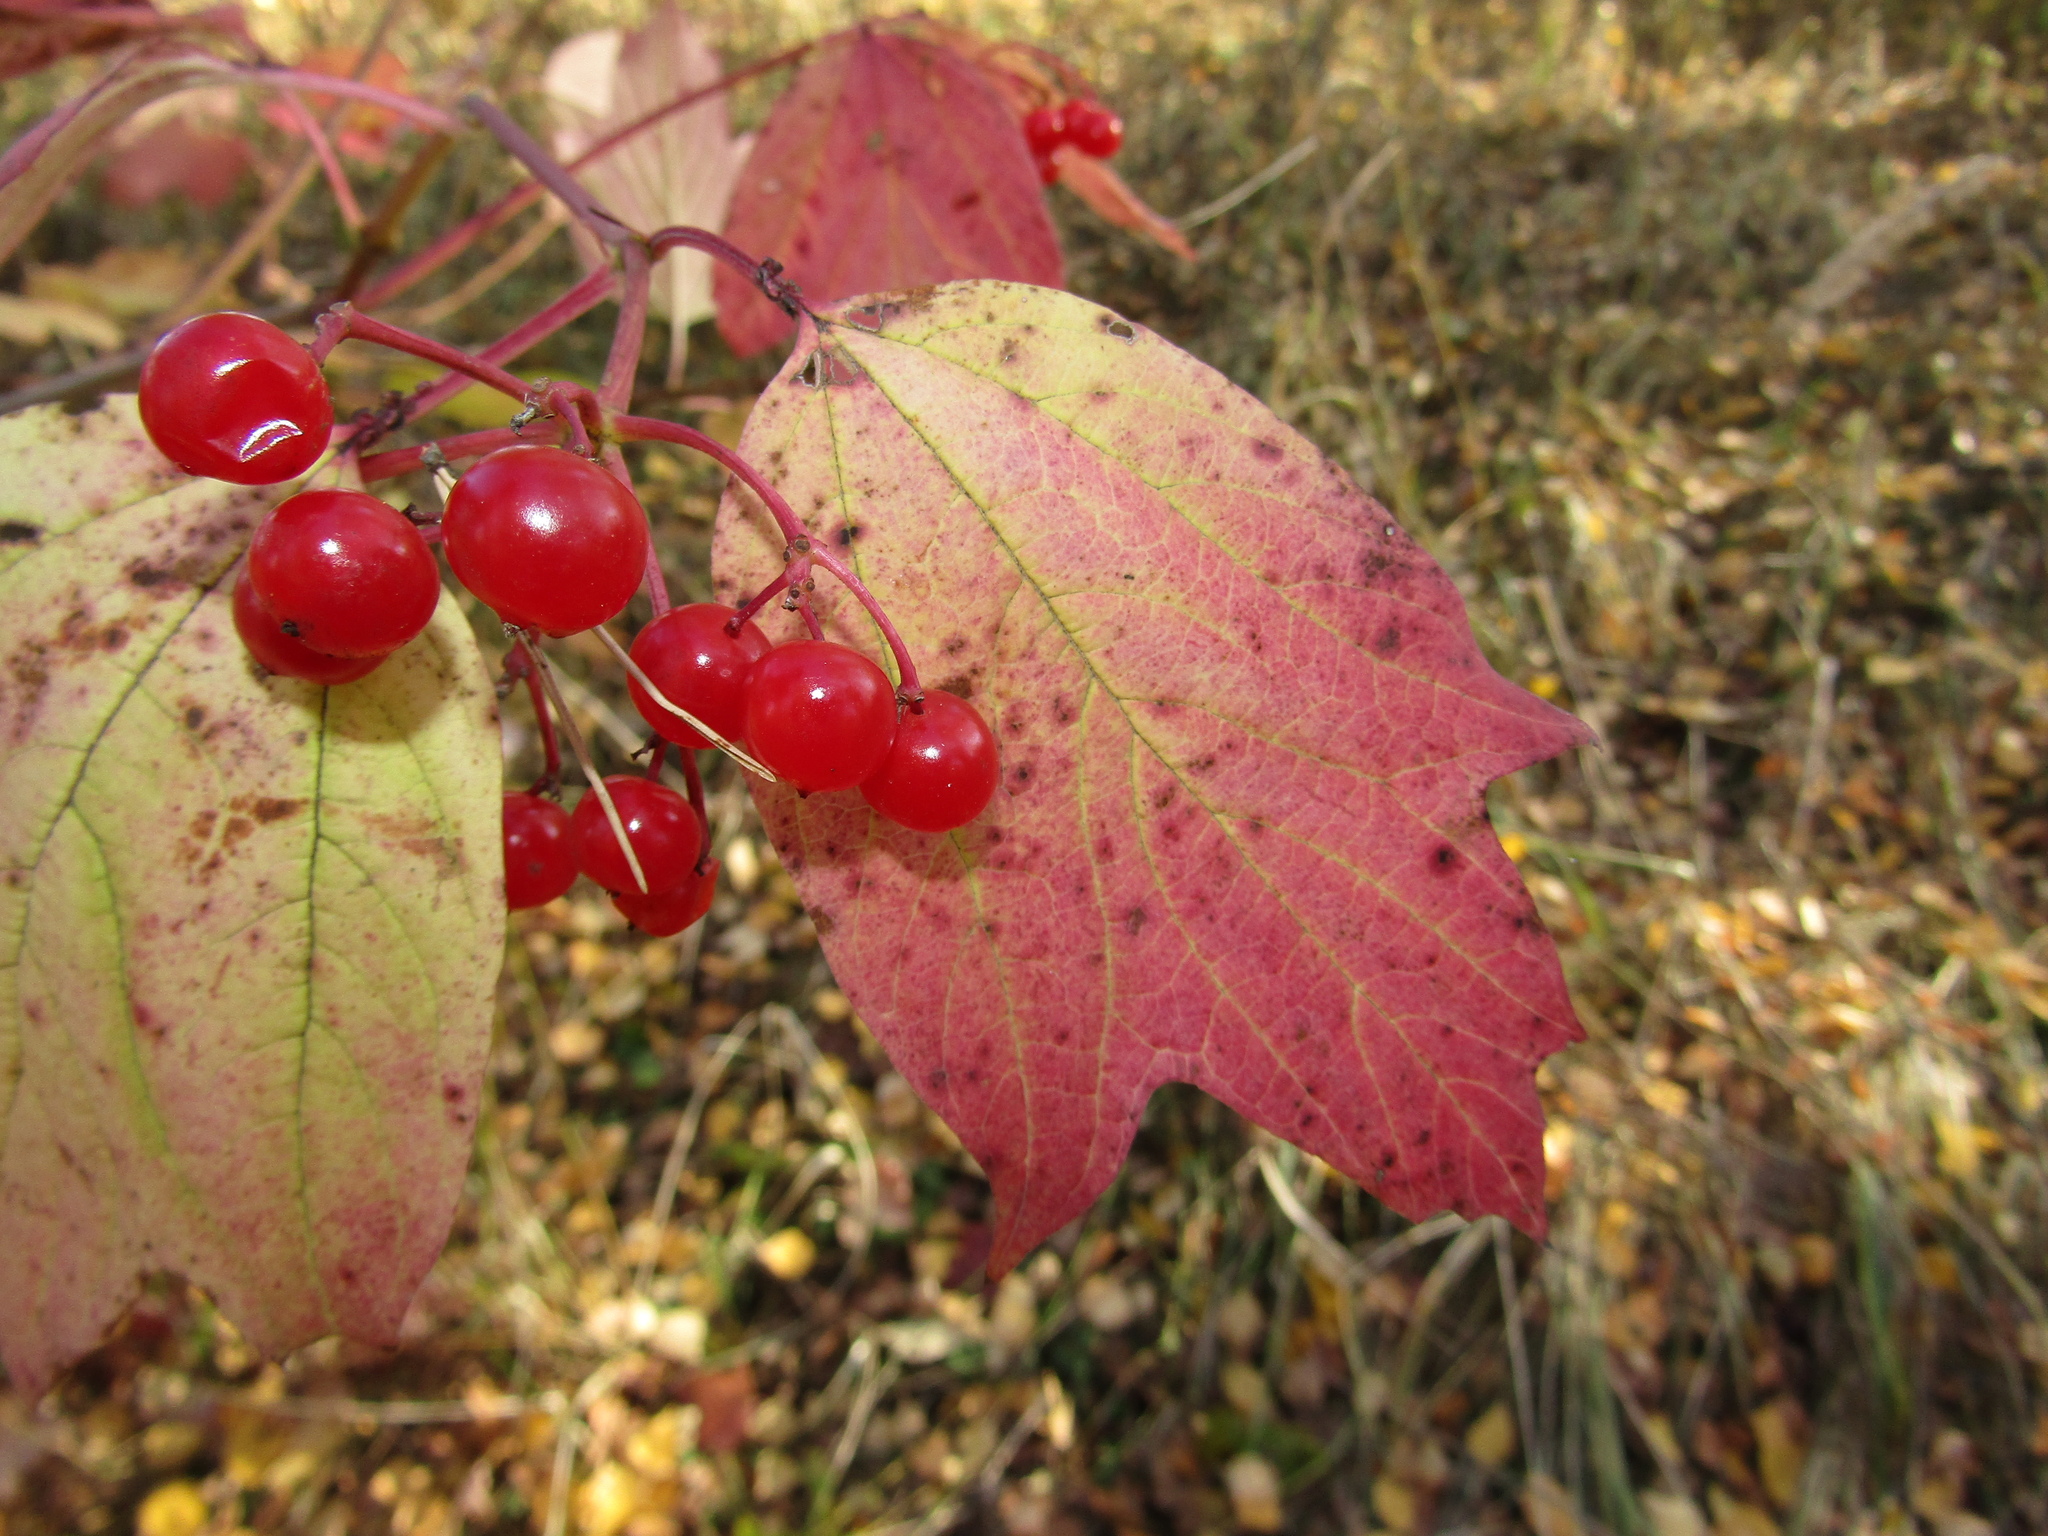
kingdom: Plantae
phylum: Tracheophyta
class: Magnoliopsida
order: Dipsacales
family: Viburnaceae
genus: Viburnum
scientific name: Viburnum opulus
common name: Guelder-rose
